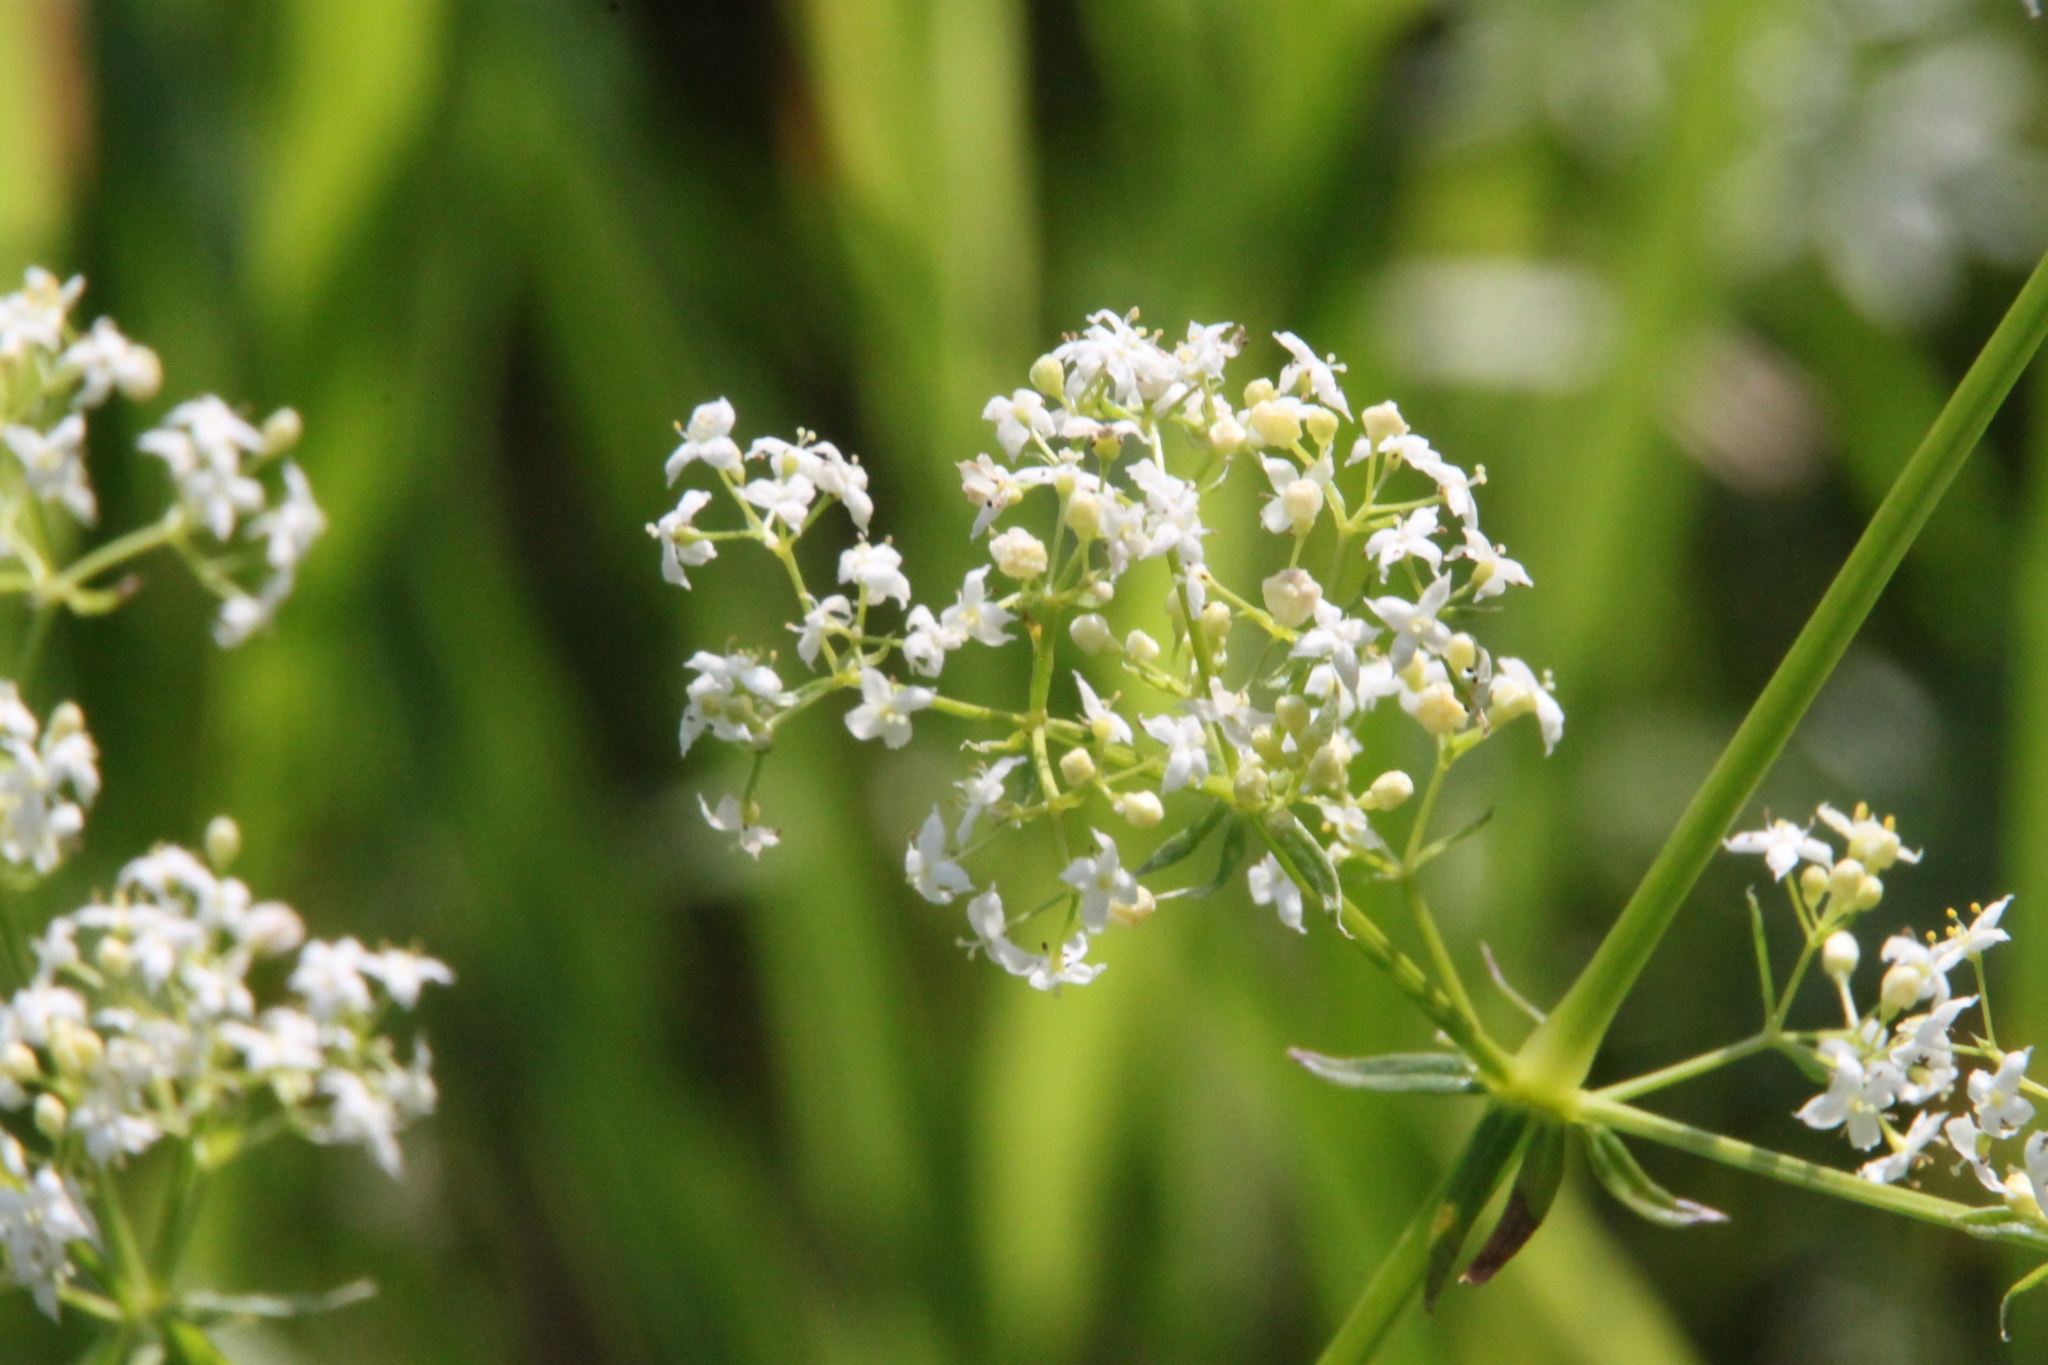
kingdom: Plantae
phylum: Tracheophyta
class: Magnoliopsida
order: Gentianales
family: Rubiaceae
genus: Galium
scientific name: Galium mollugo
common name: Hedge bedstraw
